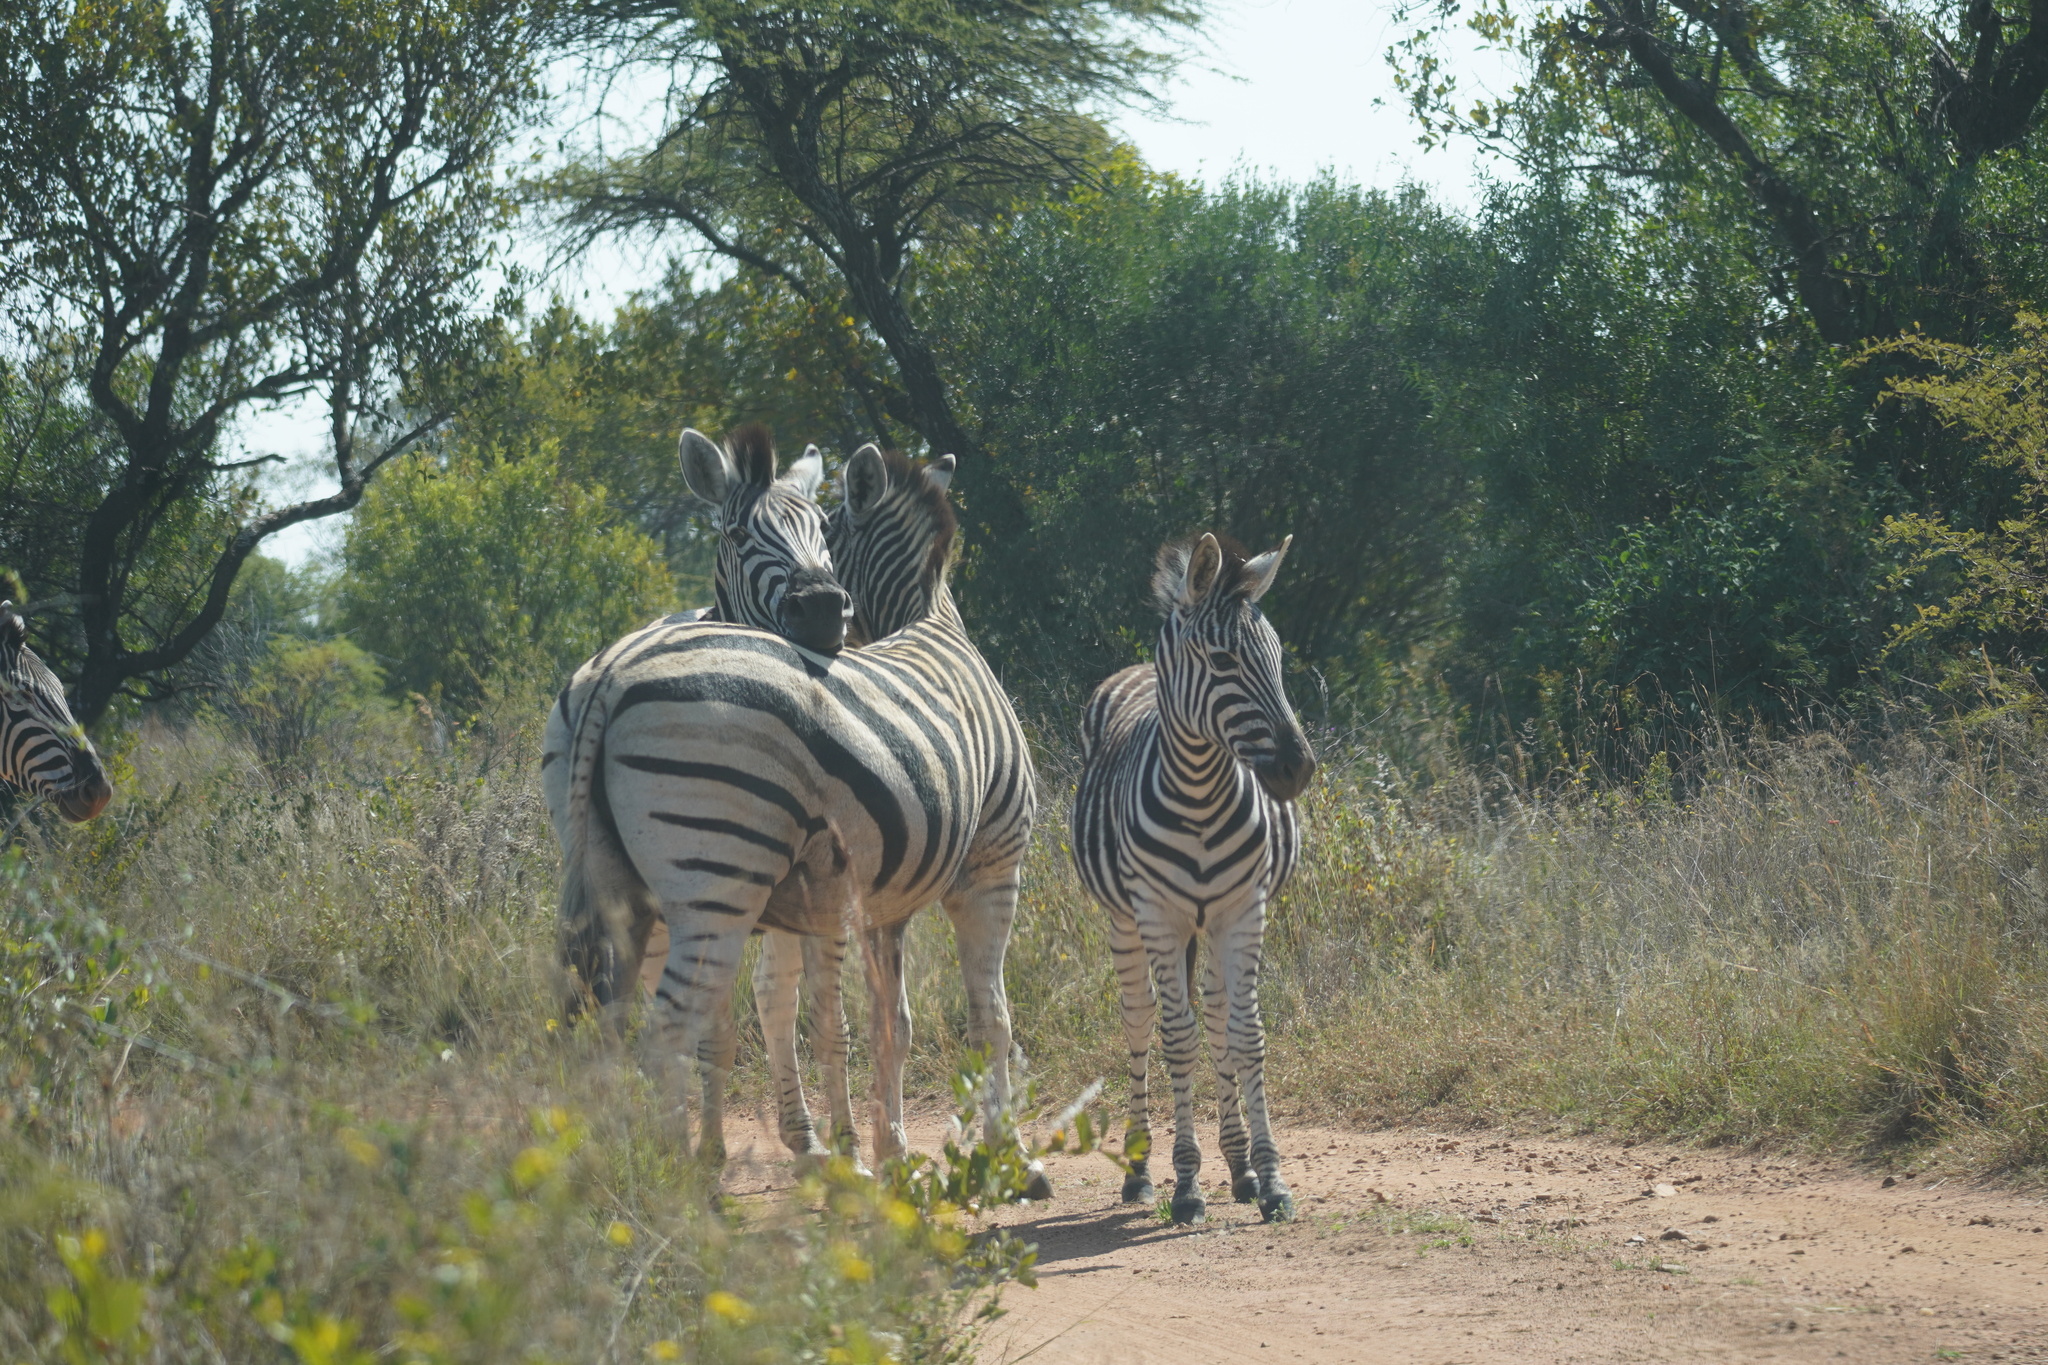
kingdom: Animalia
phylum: Chordata
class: Mammalia
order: Perissodactyla
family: Equidae
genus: Equus
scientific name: Equus quagga
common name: Plains zebra
